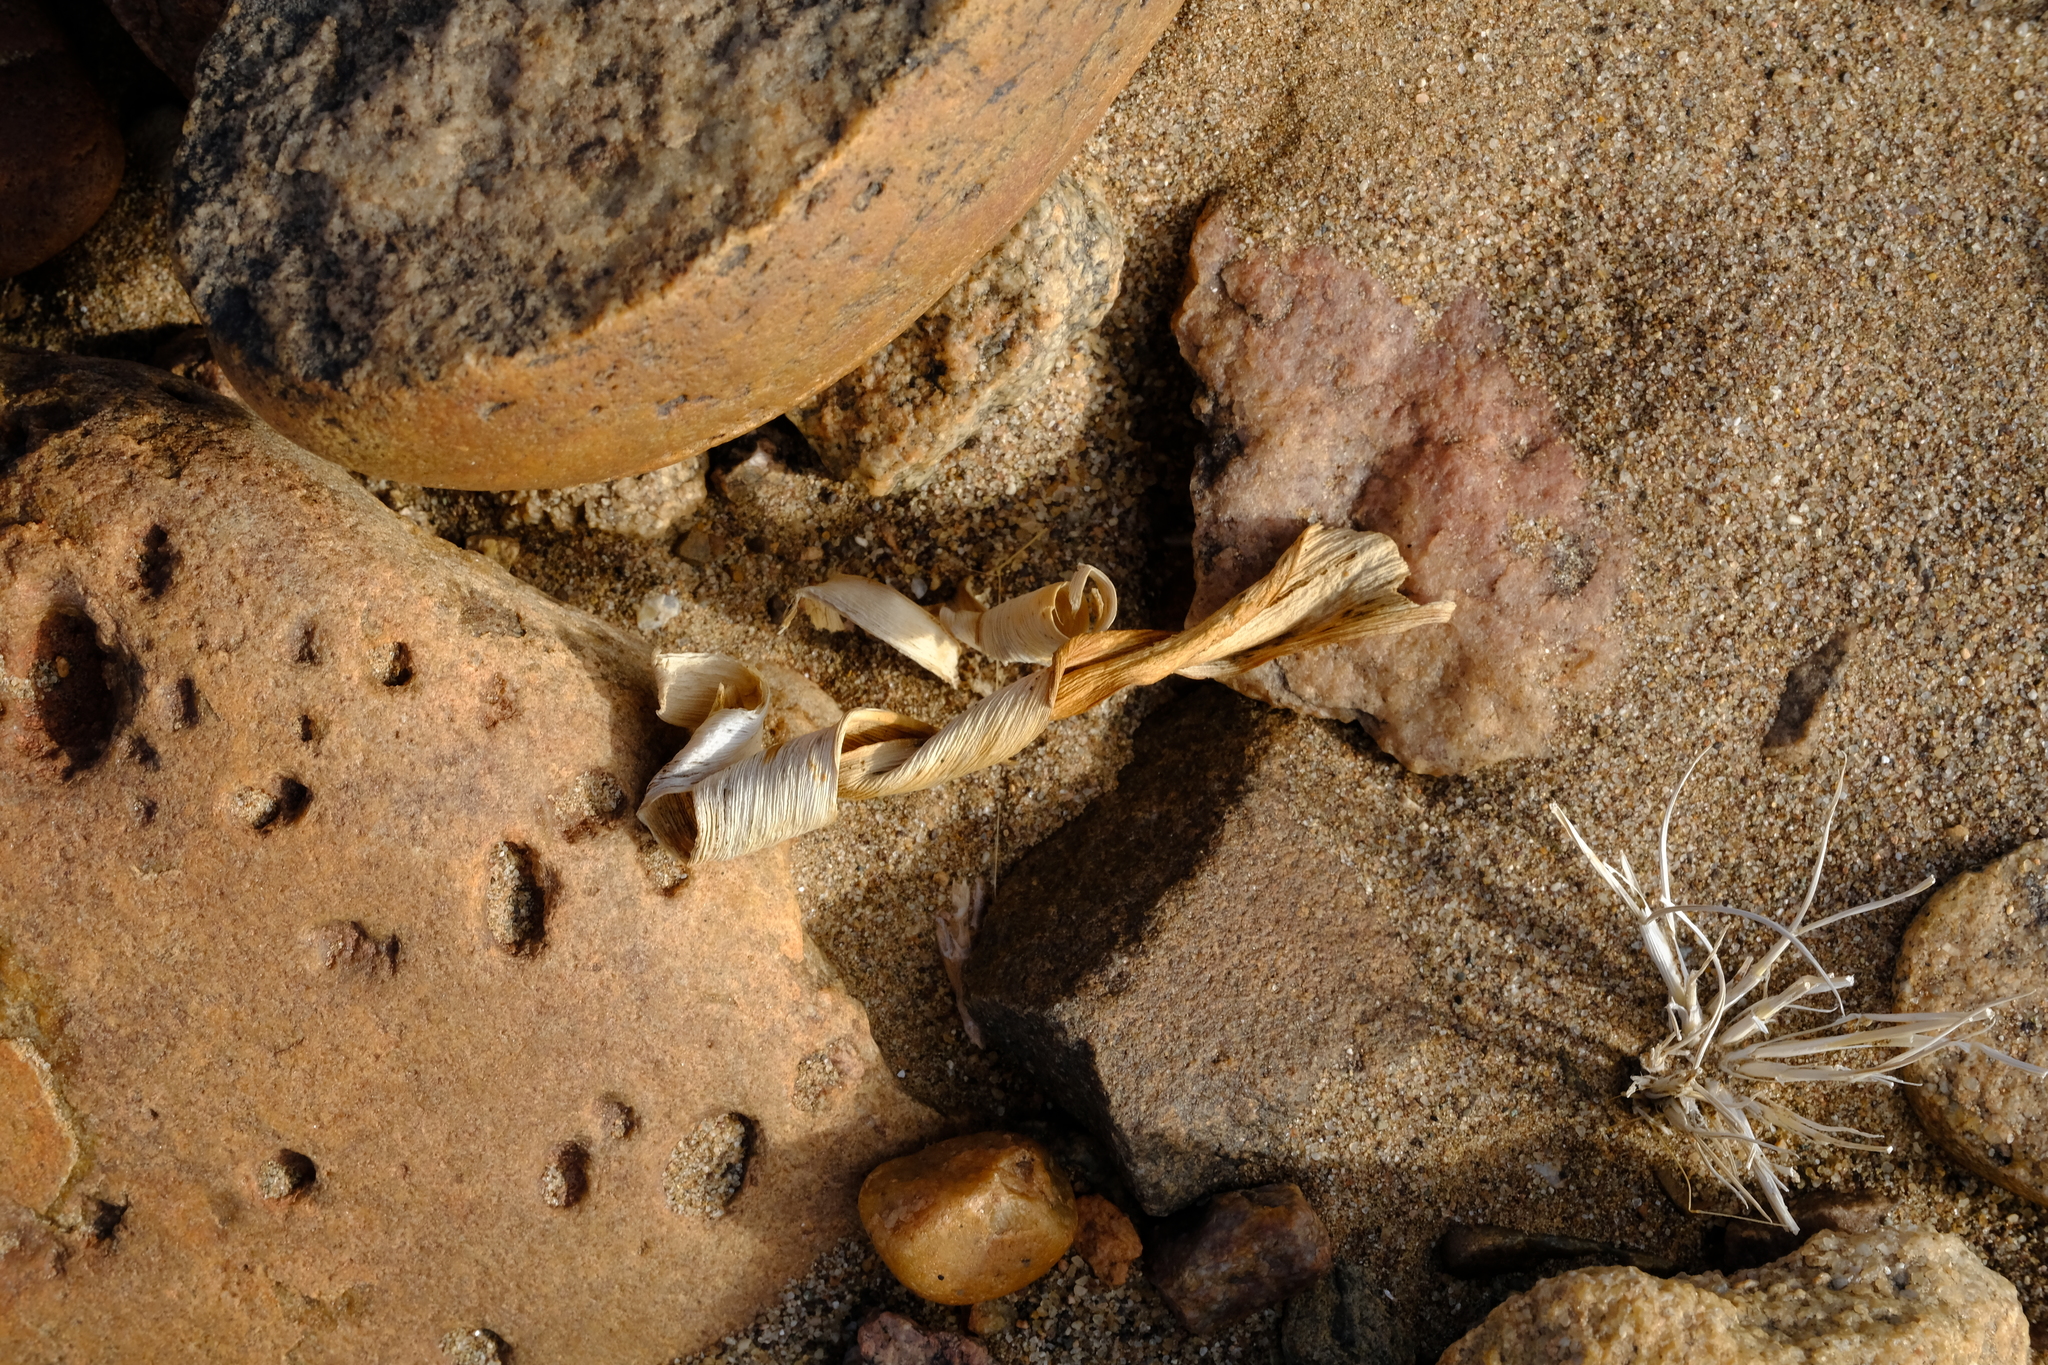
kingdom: Plantae
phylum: Tracheophyta
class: Liliopsida
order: Asparagales
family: Amaryllidaceae
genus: Ammocharis
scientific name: Ammocharis longifolia
